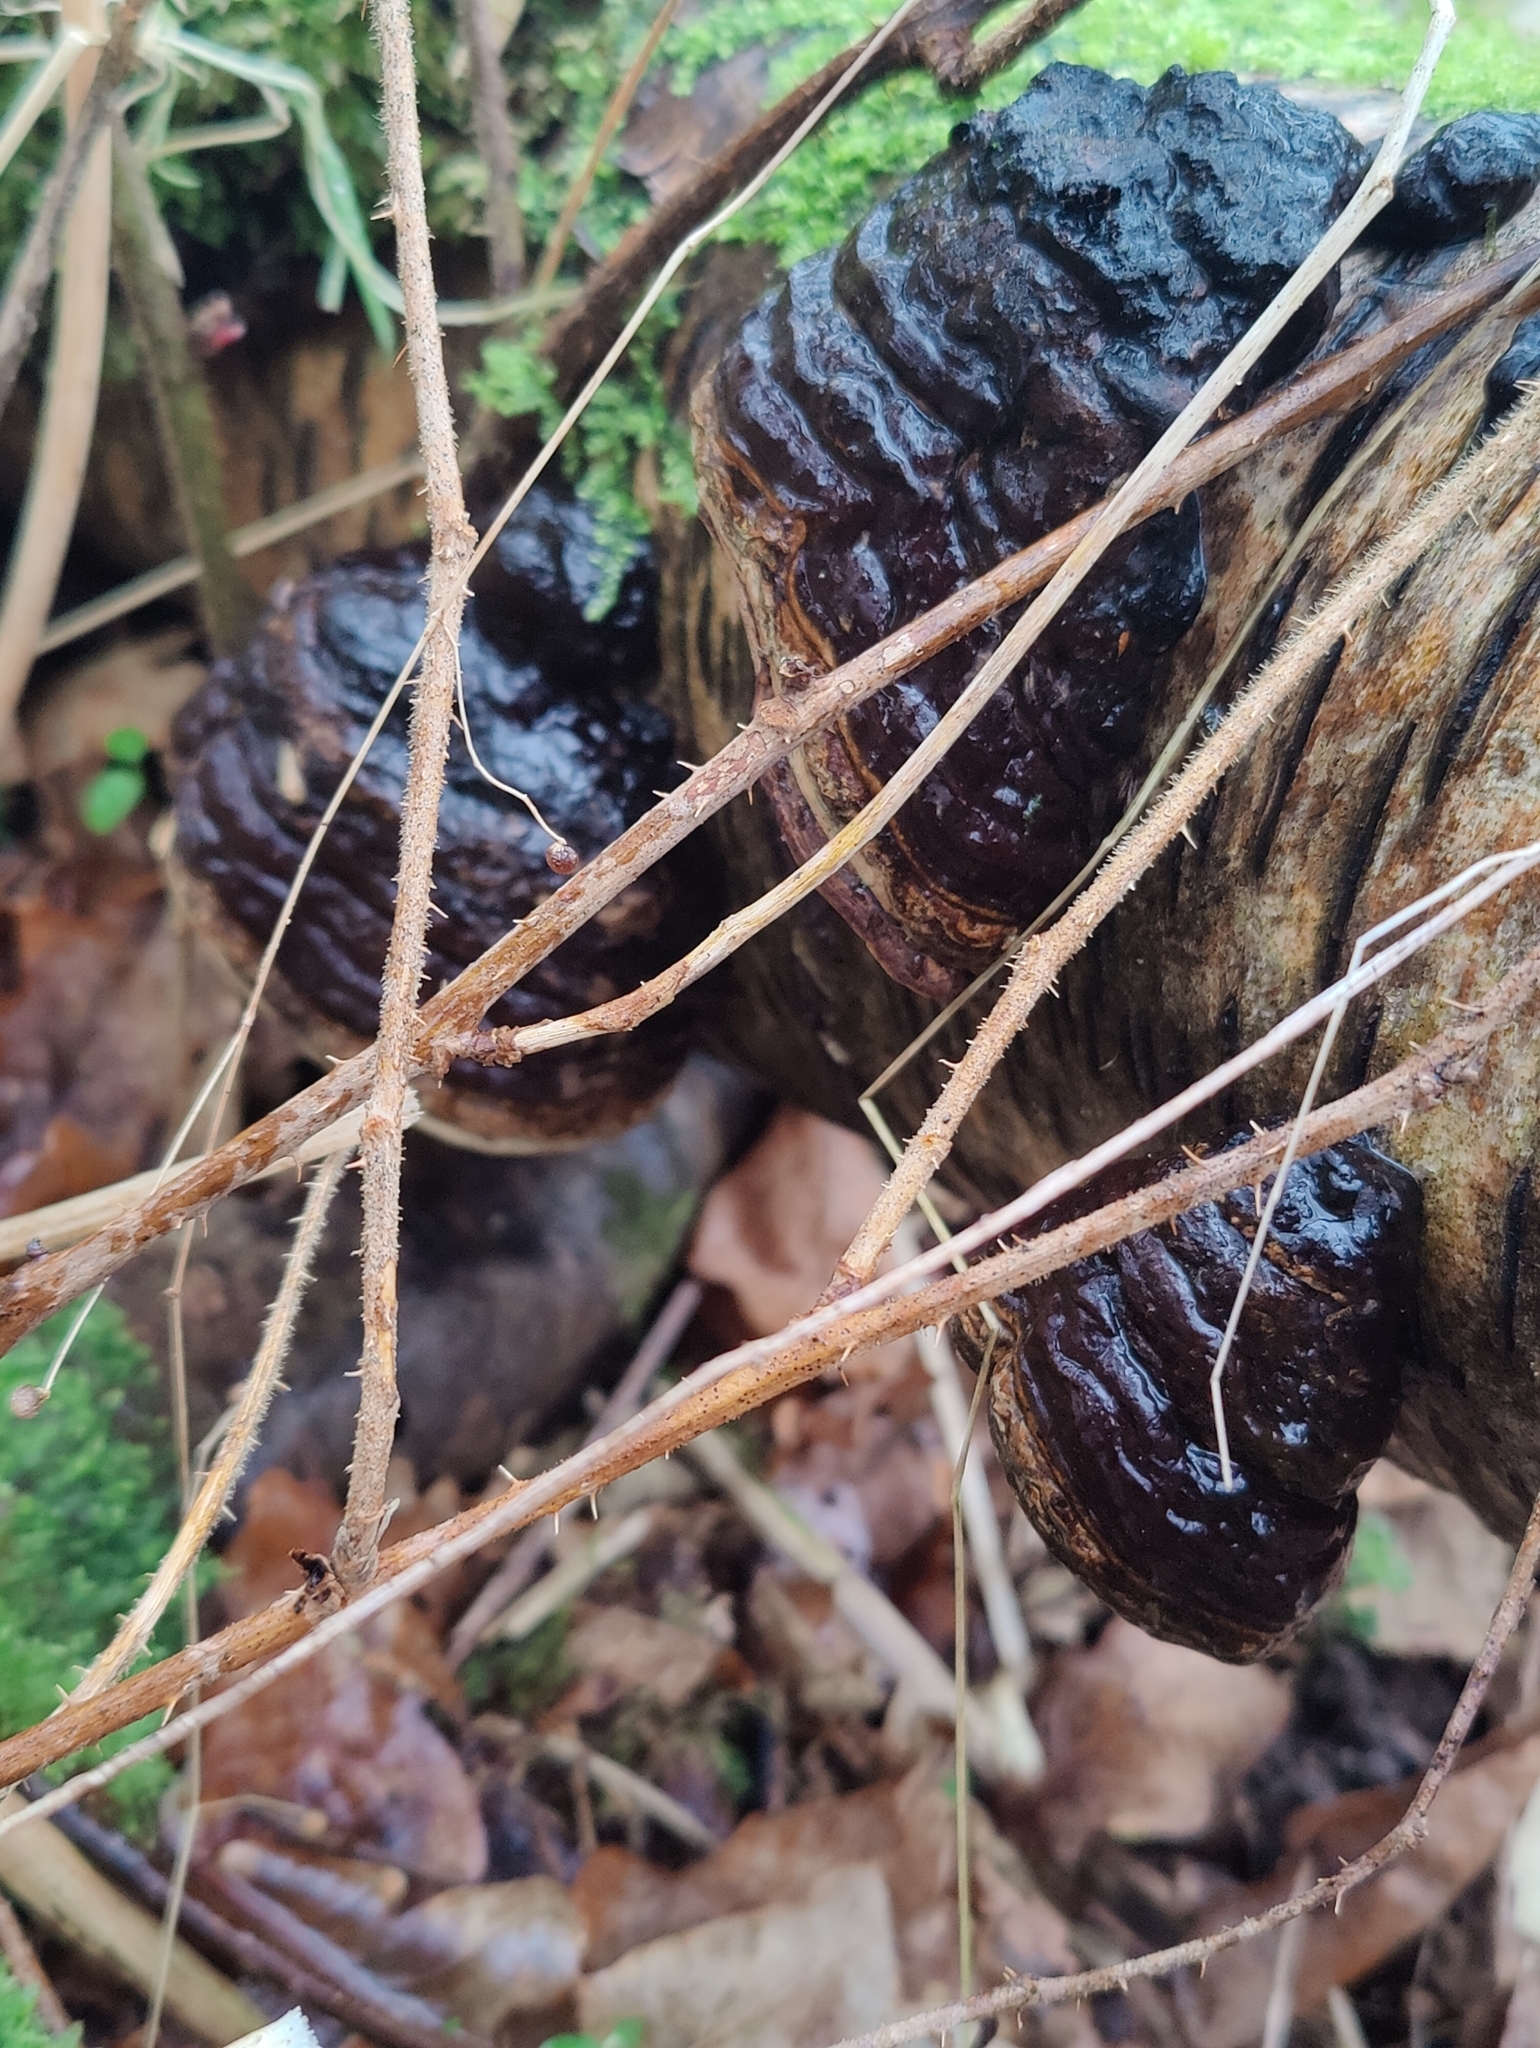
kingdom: Fungi
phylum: Basidiomycota
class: Agaricomycetes
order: Polyporales
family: Polyporaceae
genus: Fomes
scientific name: Fomes fomentarius
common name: Hoof fungus
